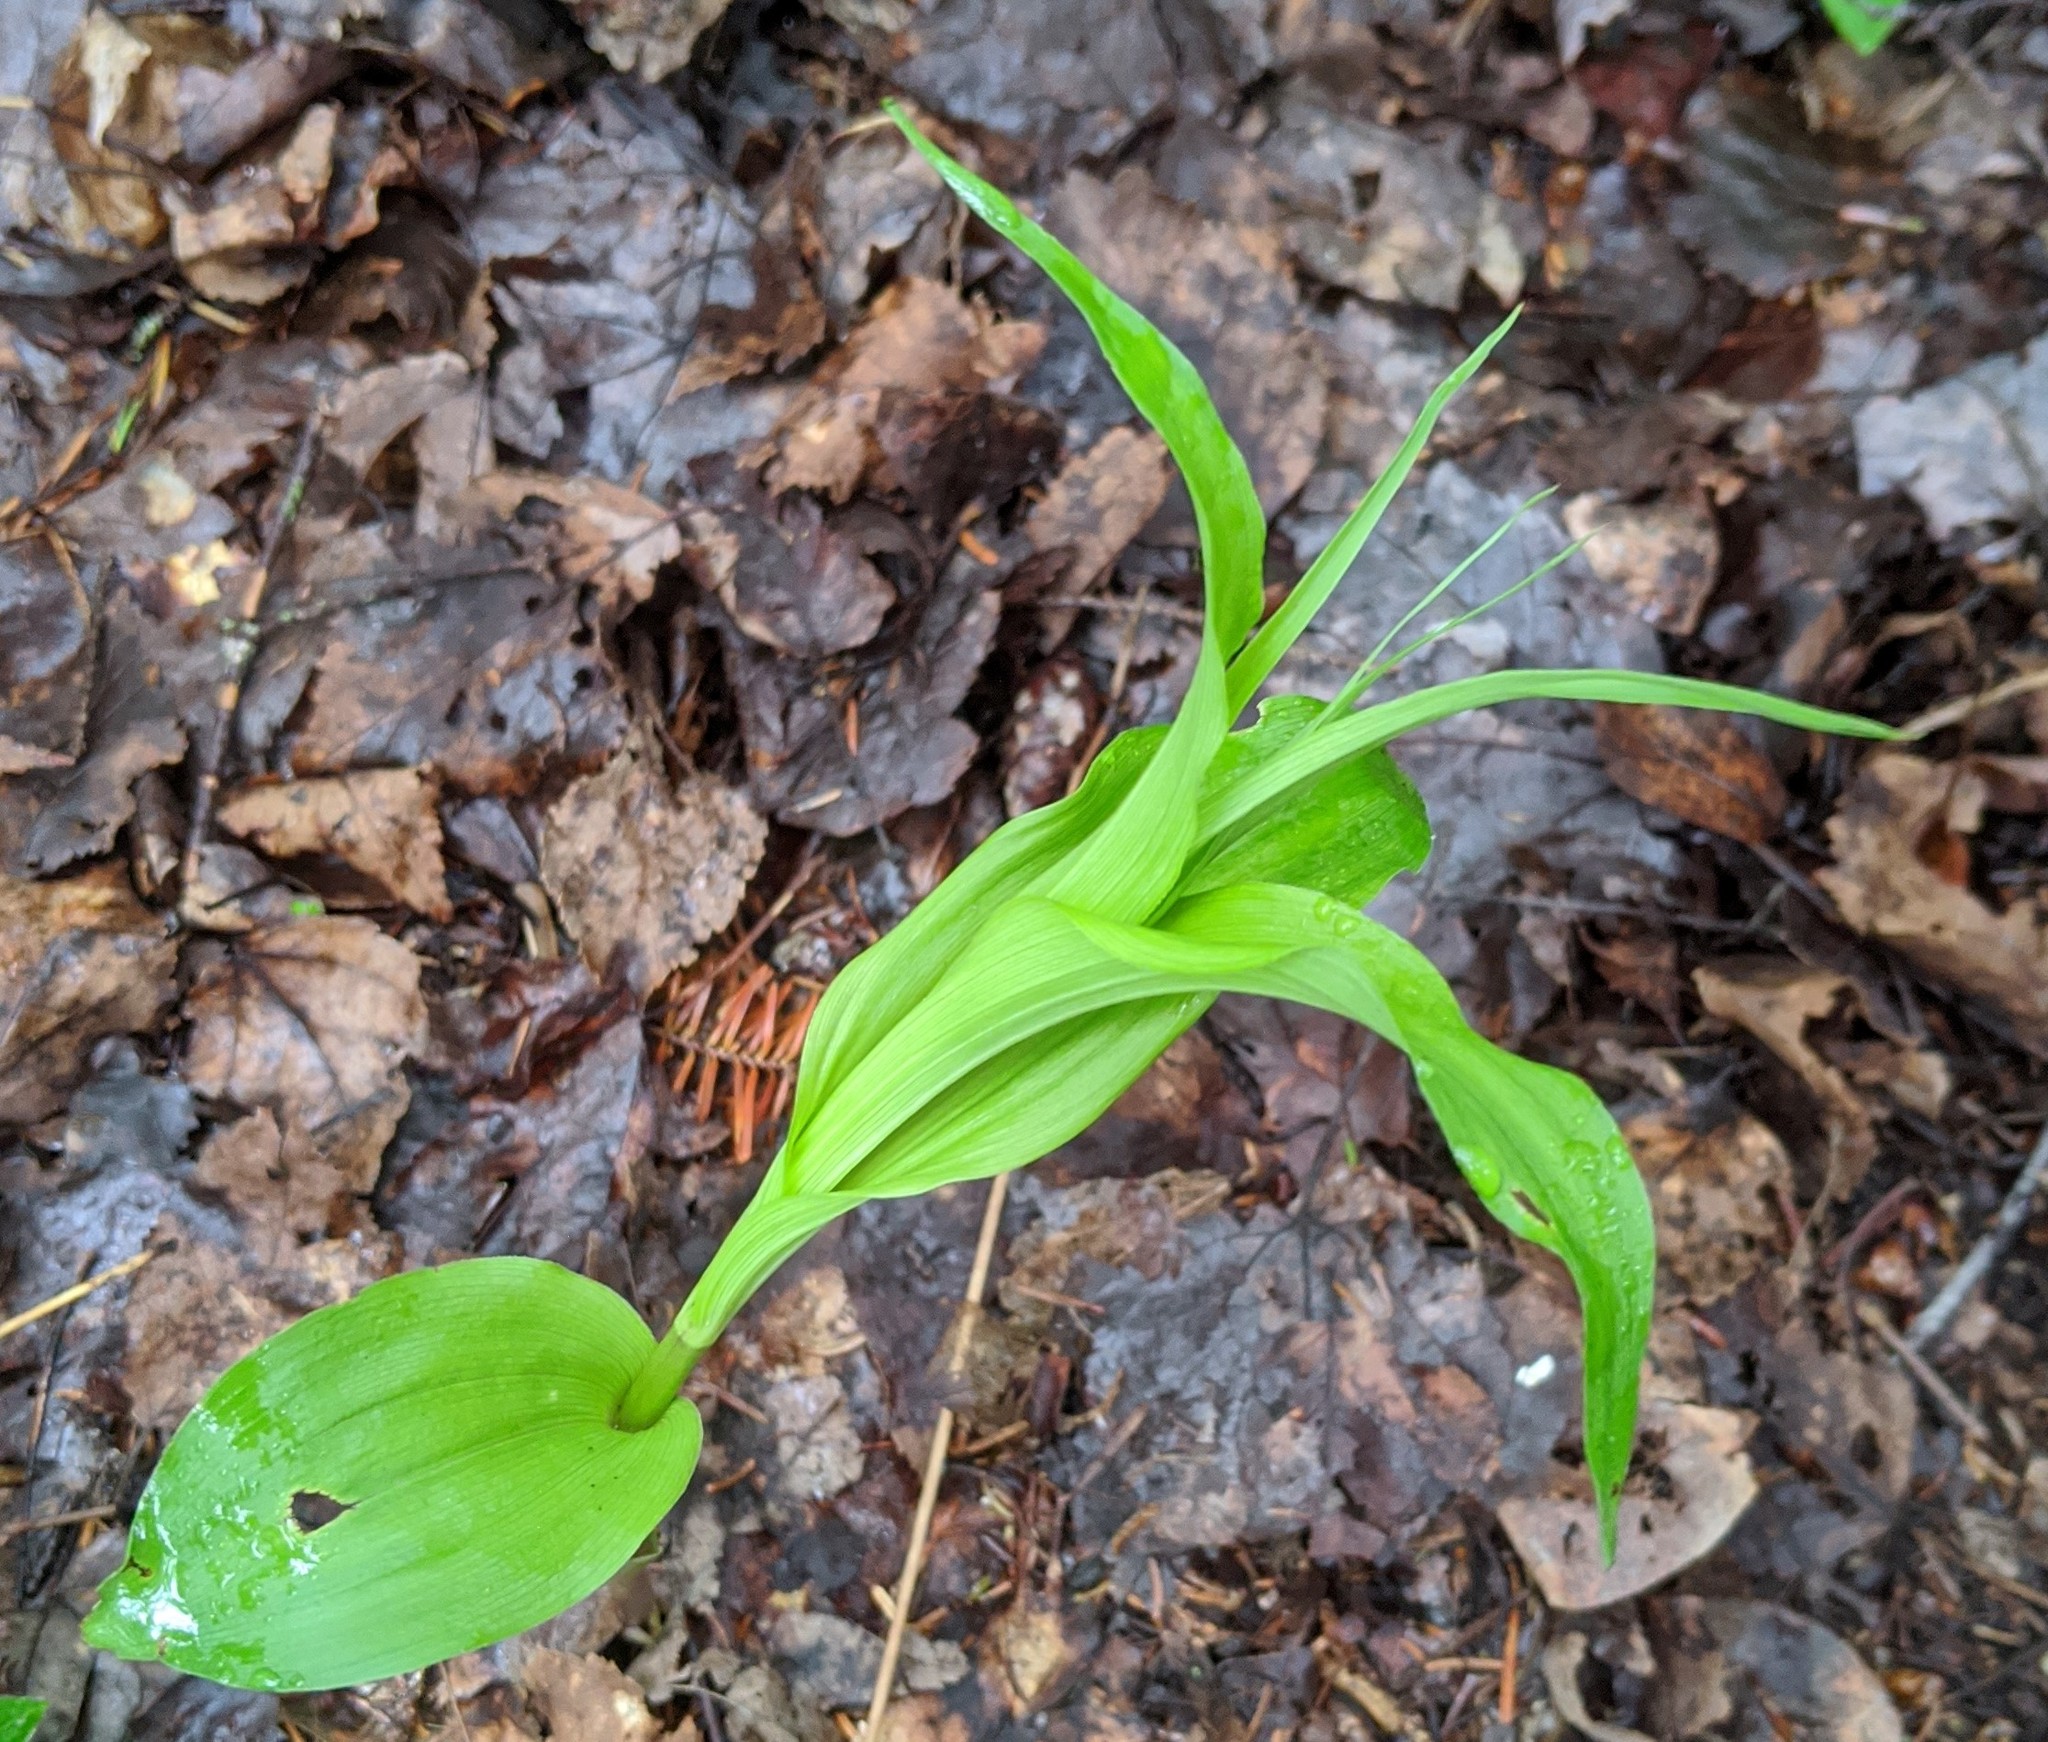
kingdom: Plantae
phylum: Tracheophyta
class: Liliopsida
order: Asparagales
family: Orchidaceae
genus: Epipactis
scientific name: Epipactis helleborine
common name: Broad-leaved helleborine
